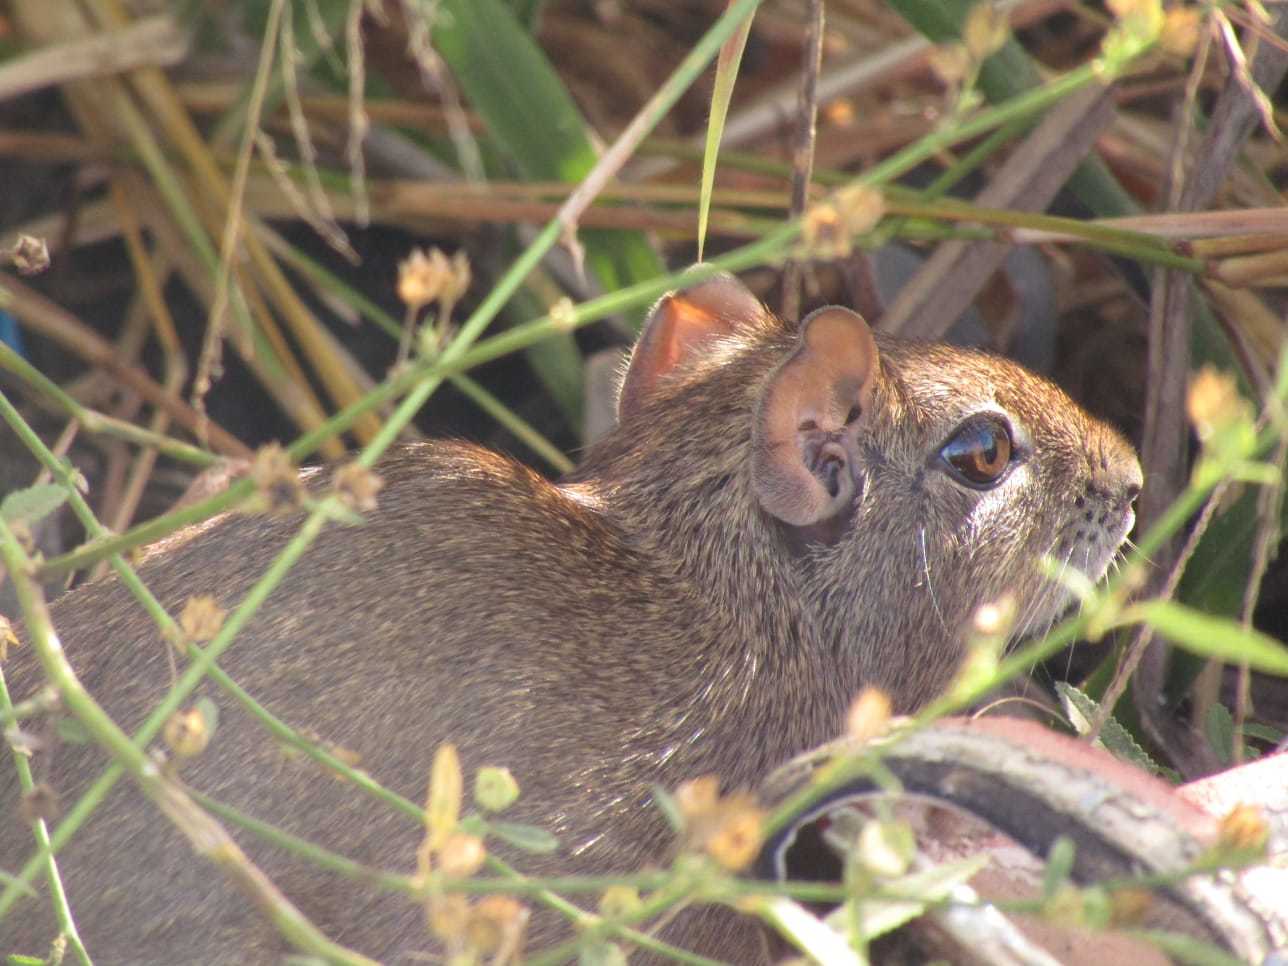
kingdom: Animalia
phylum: Chordata
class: Mammalia
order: Rodentia
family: Caviidae
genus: Galea
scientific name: Galea spixii
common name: Spix's yellow-toothed cavy
